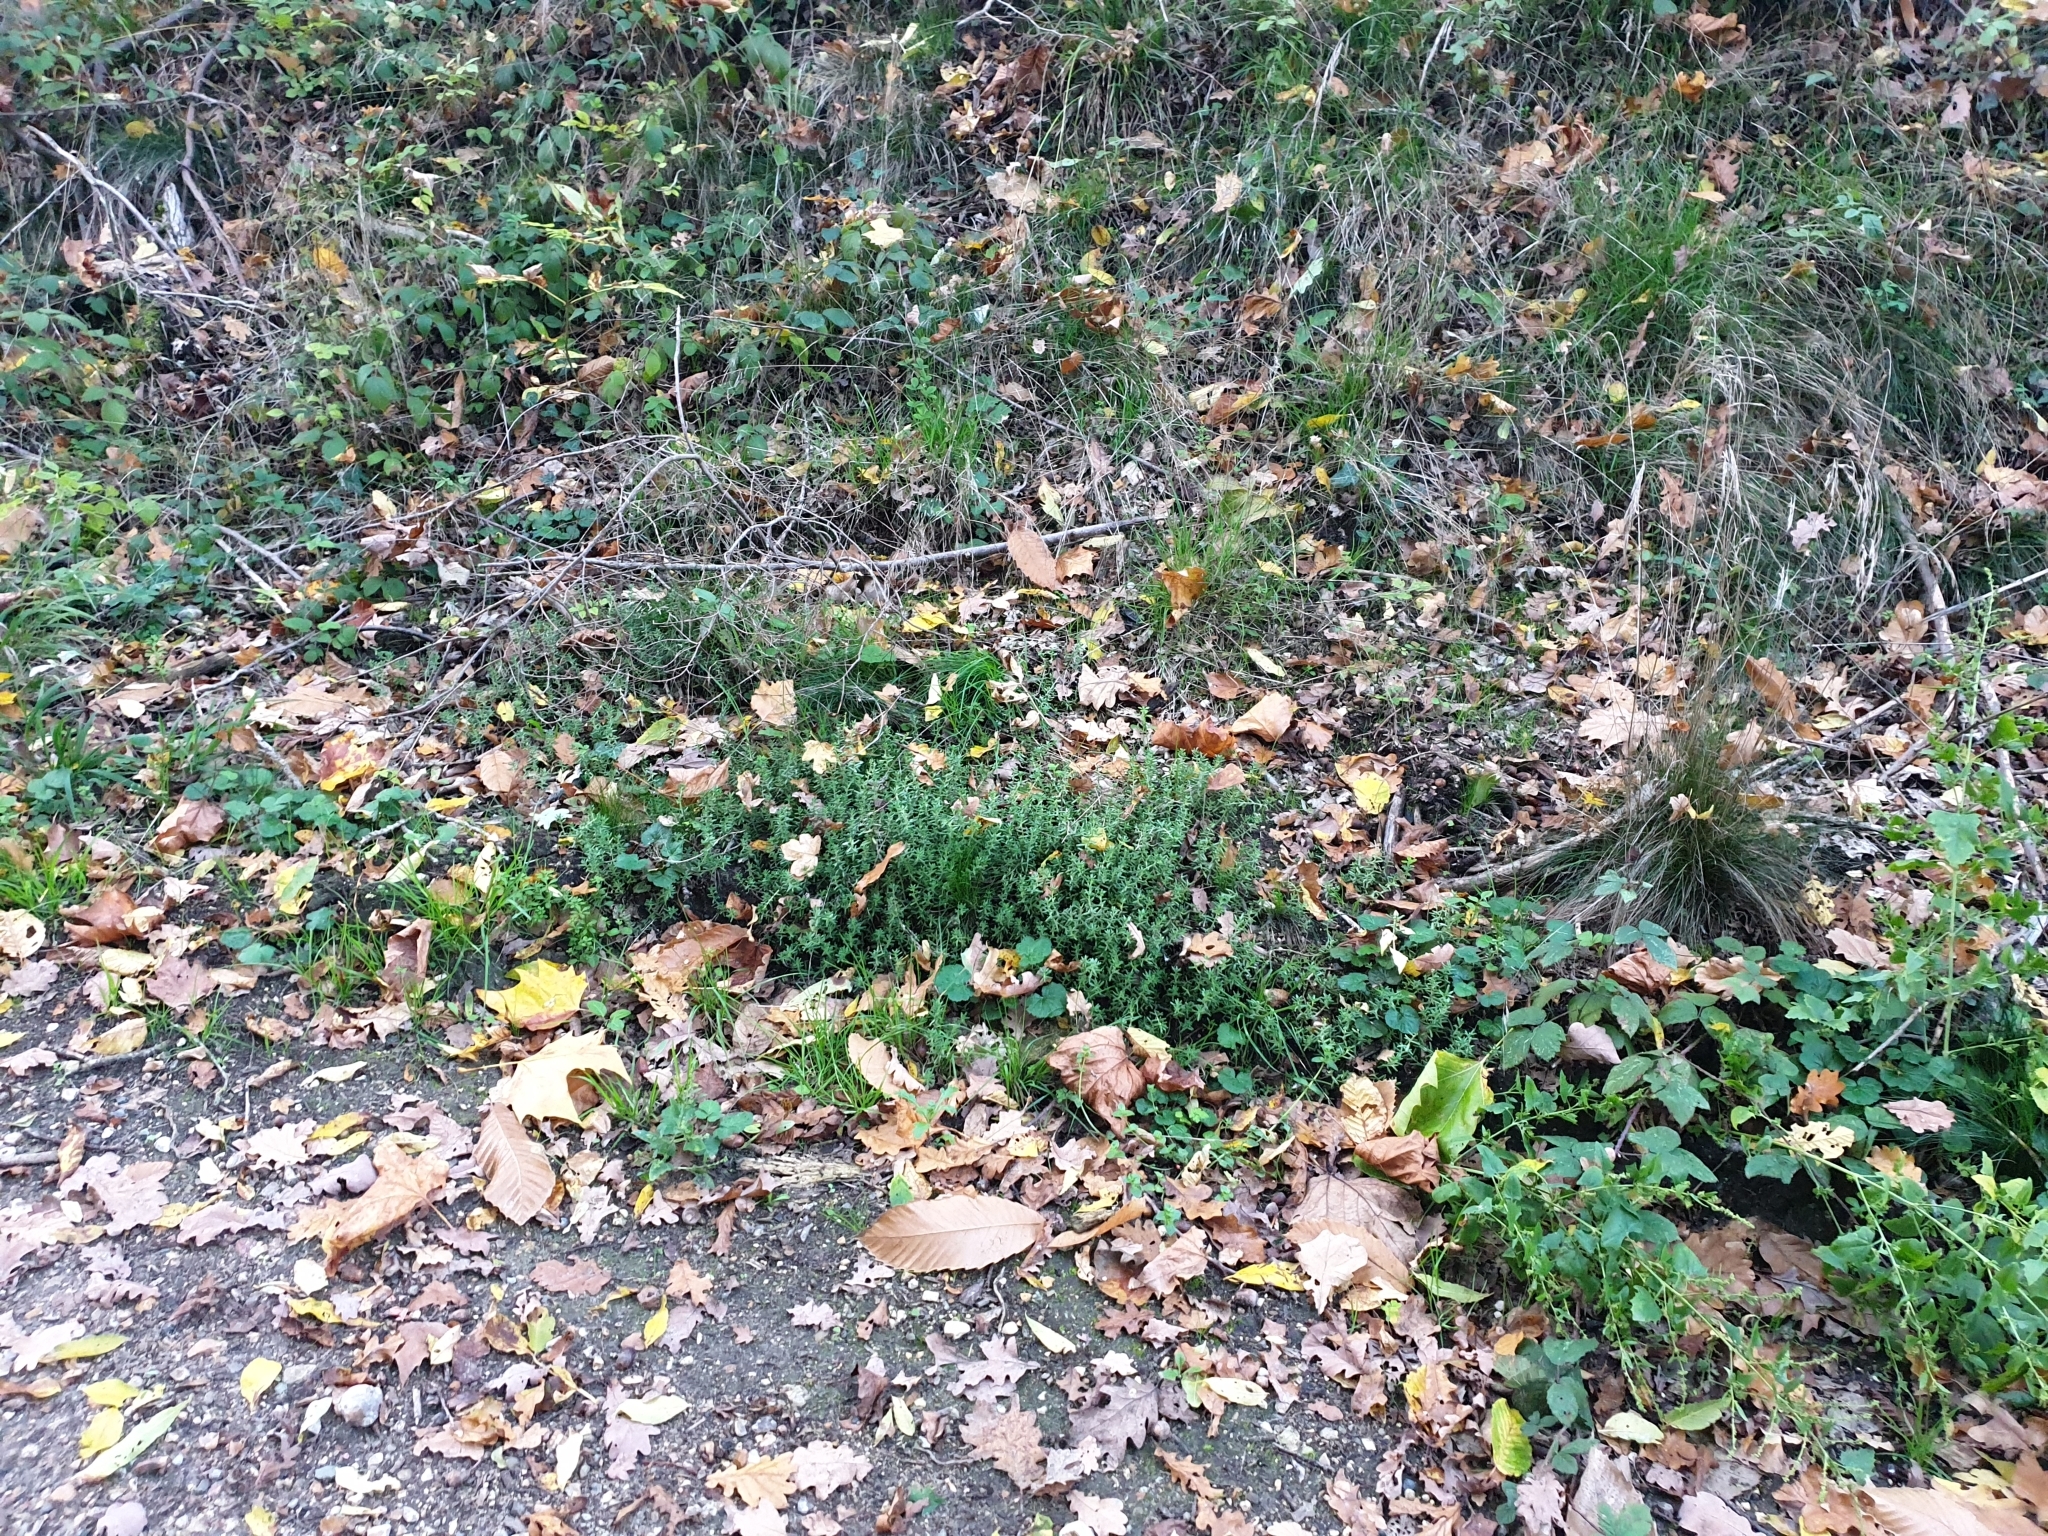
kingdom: Plantae
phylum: Tracheophyta
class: Magnoliopsida
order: Saxifragales
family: Crassulaceae
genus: Sedum
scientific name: Sedum album
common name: White stonecrop
